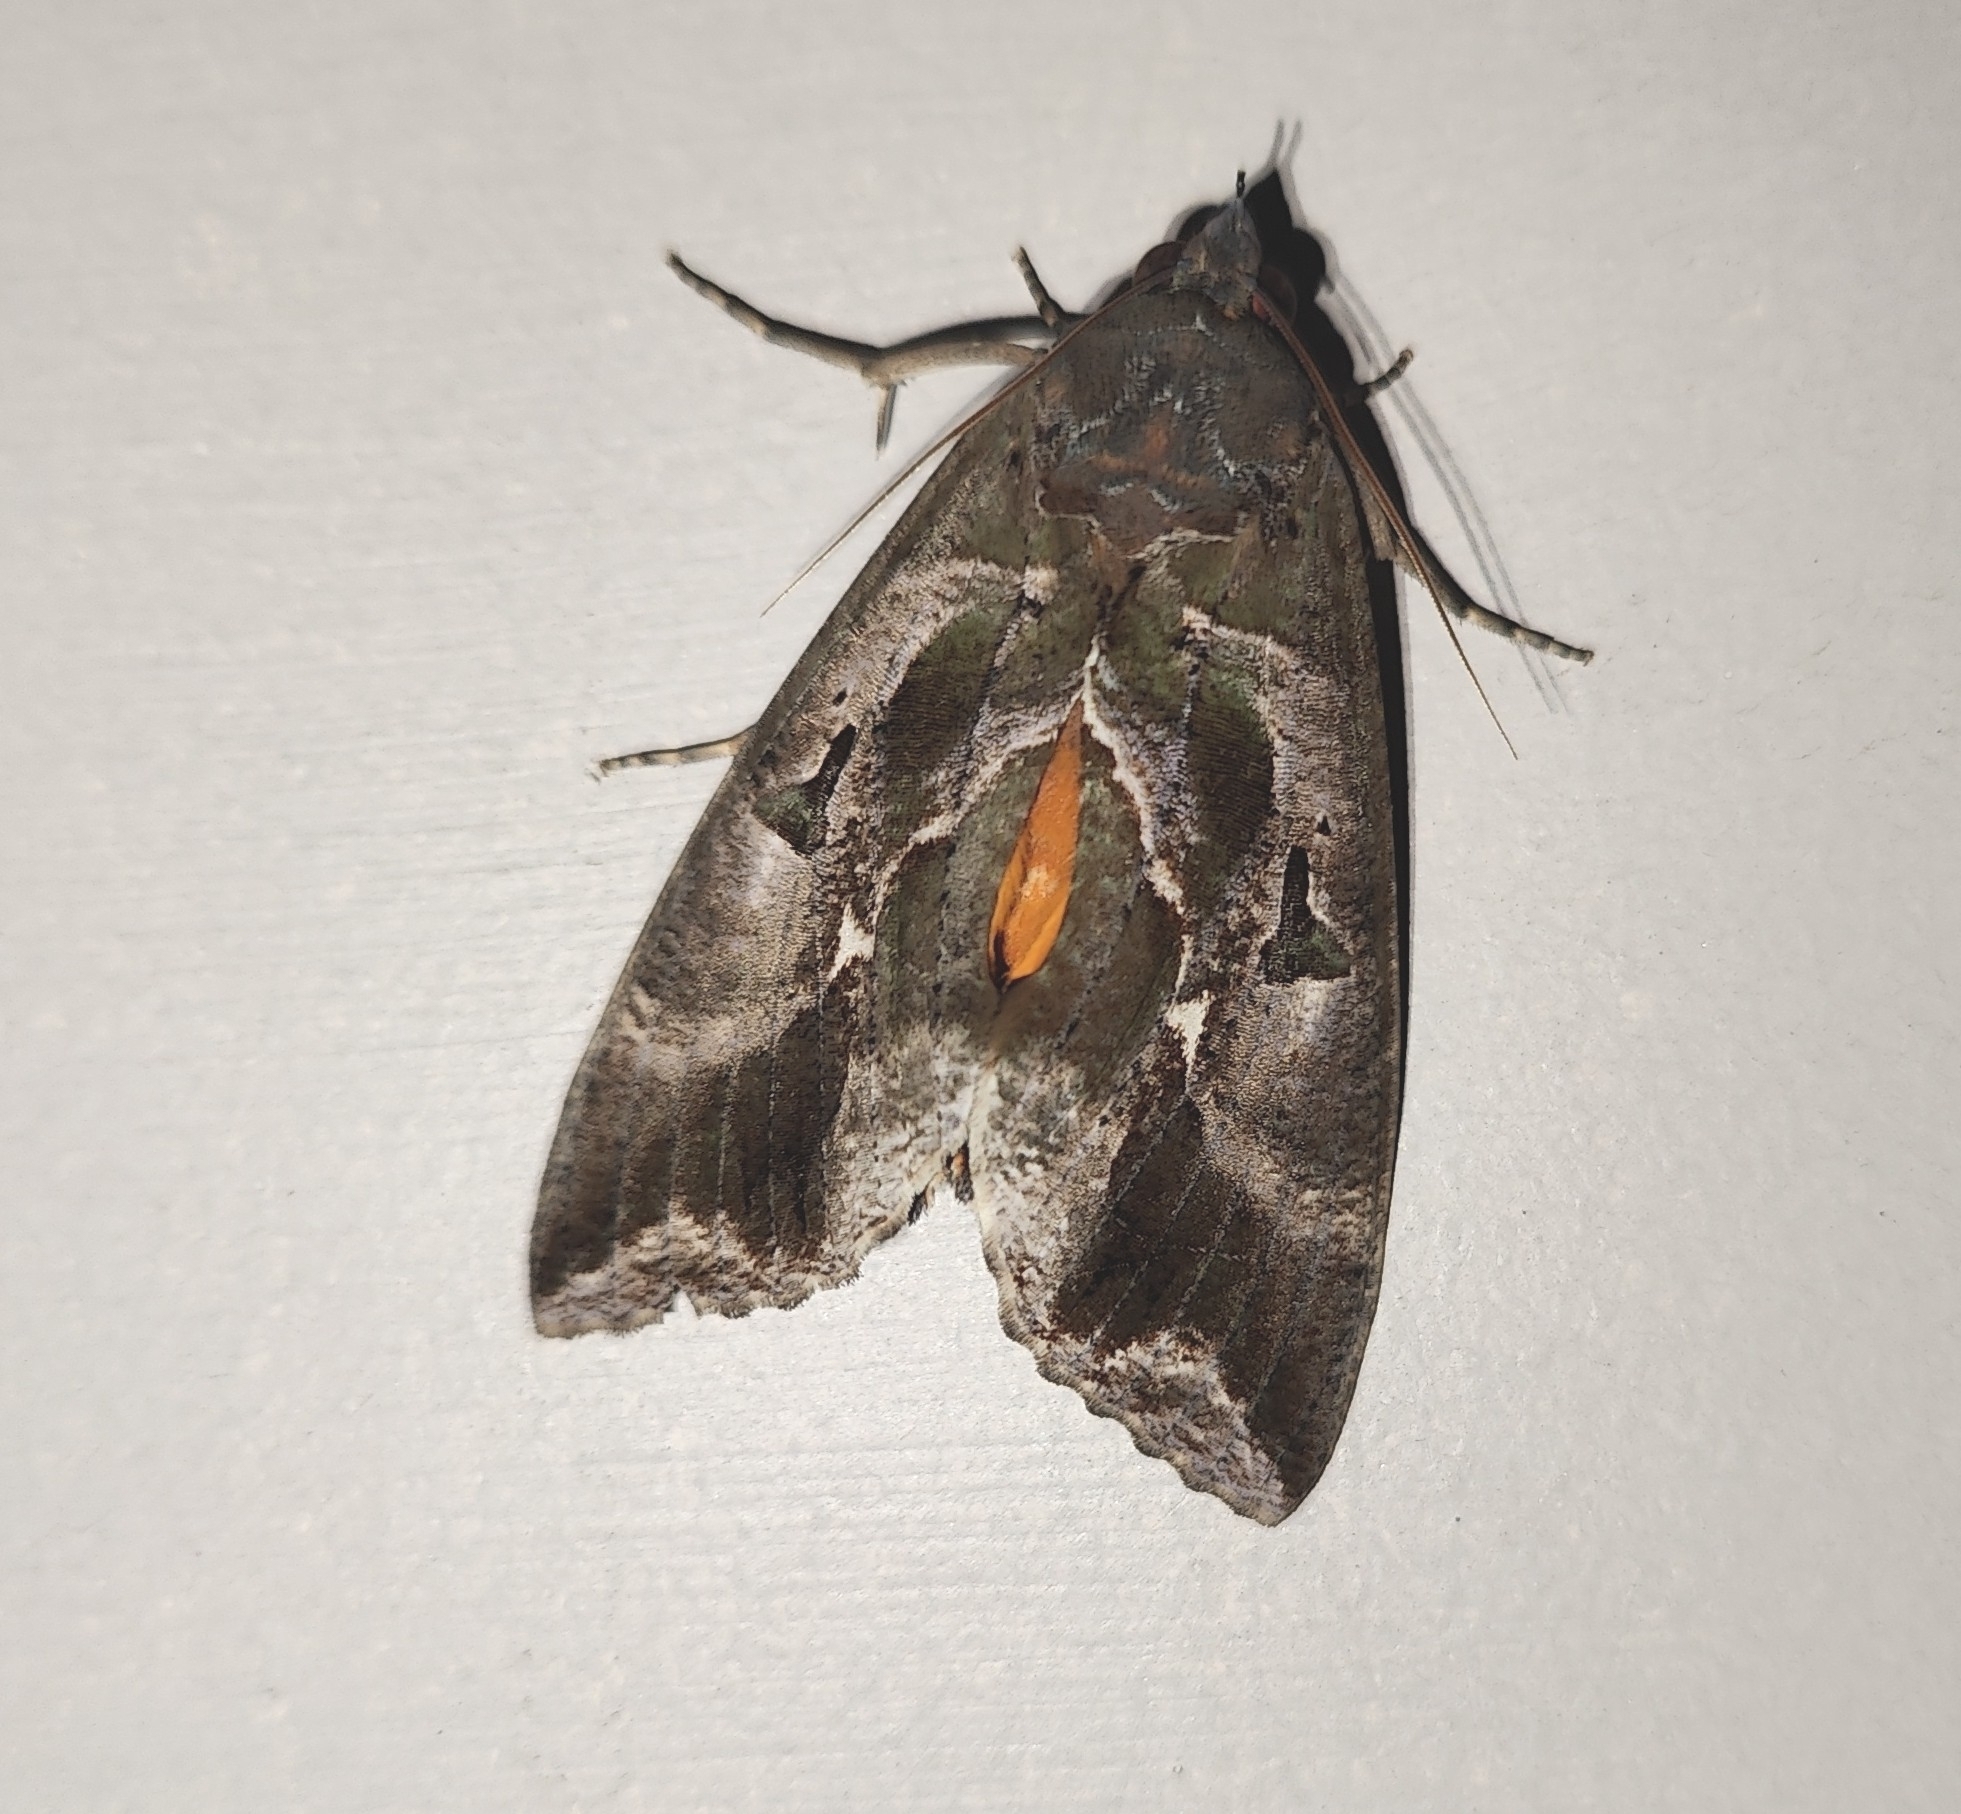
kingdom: Animalia
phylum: Arthropoda
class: Insecta
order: Lepidoptera
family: Erebidae
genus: Eudocima
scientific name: Eudocima phalonia
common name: Wasp
